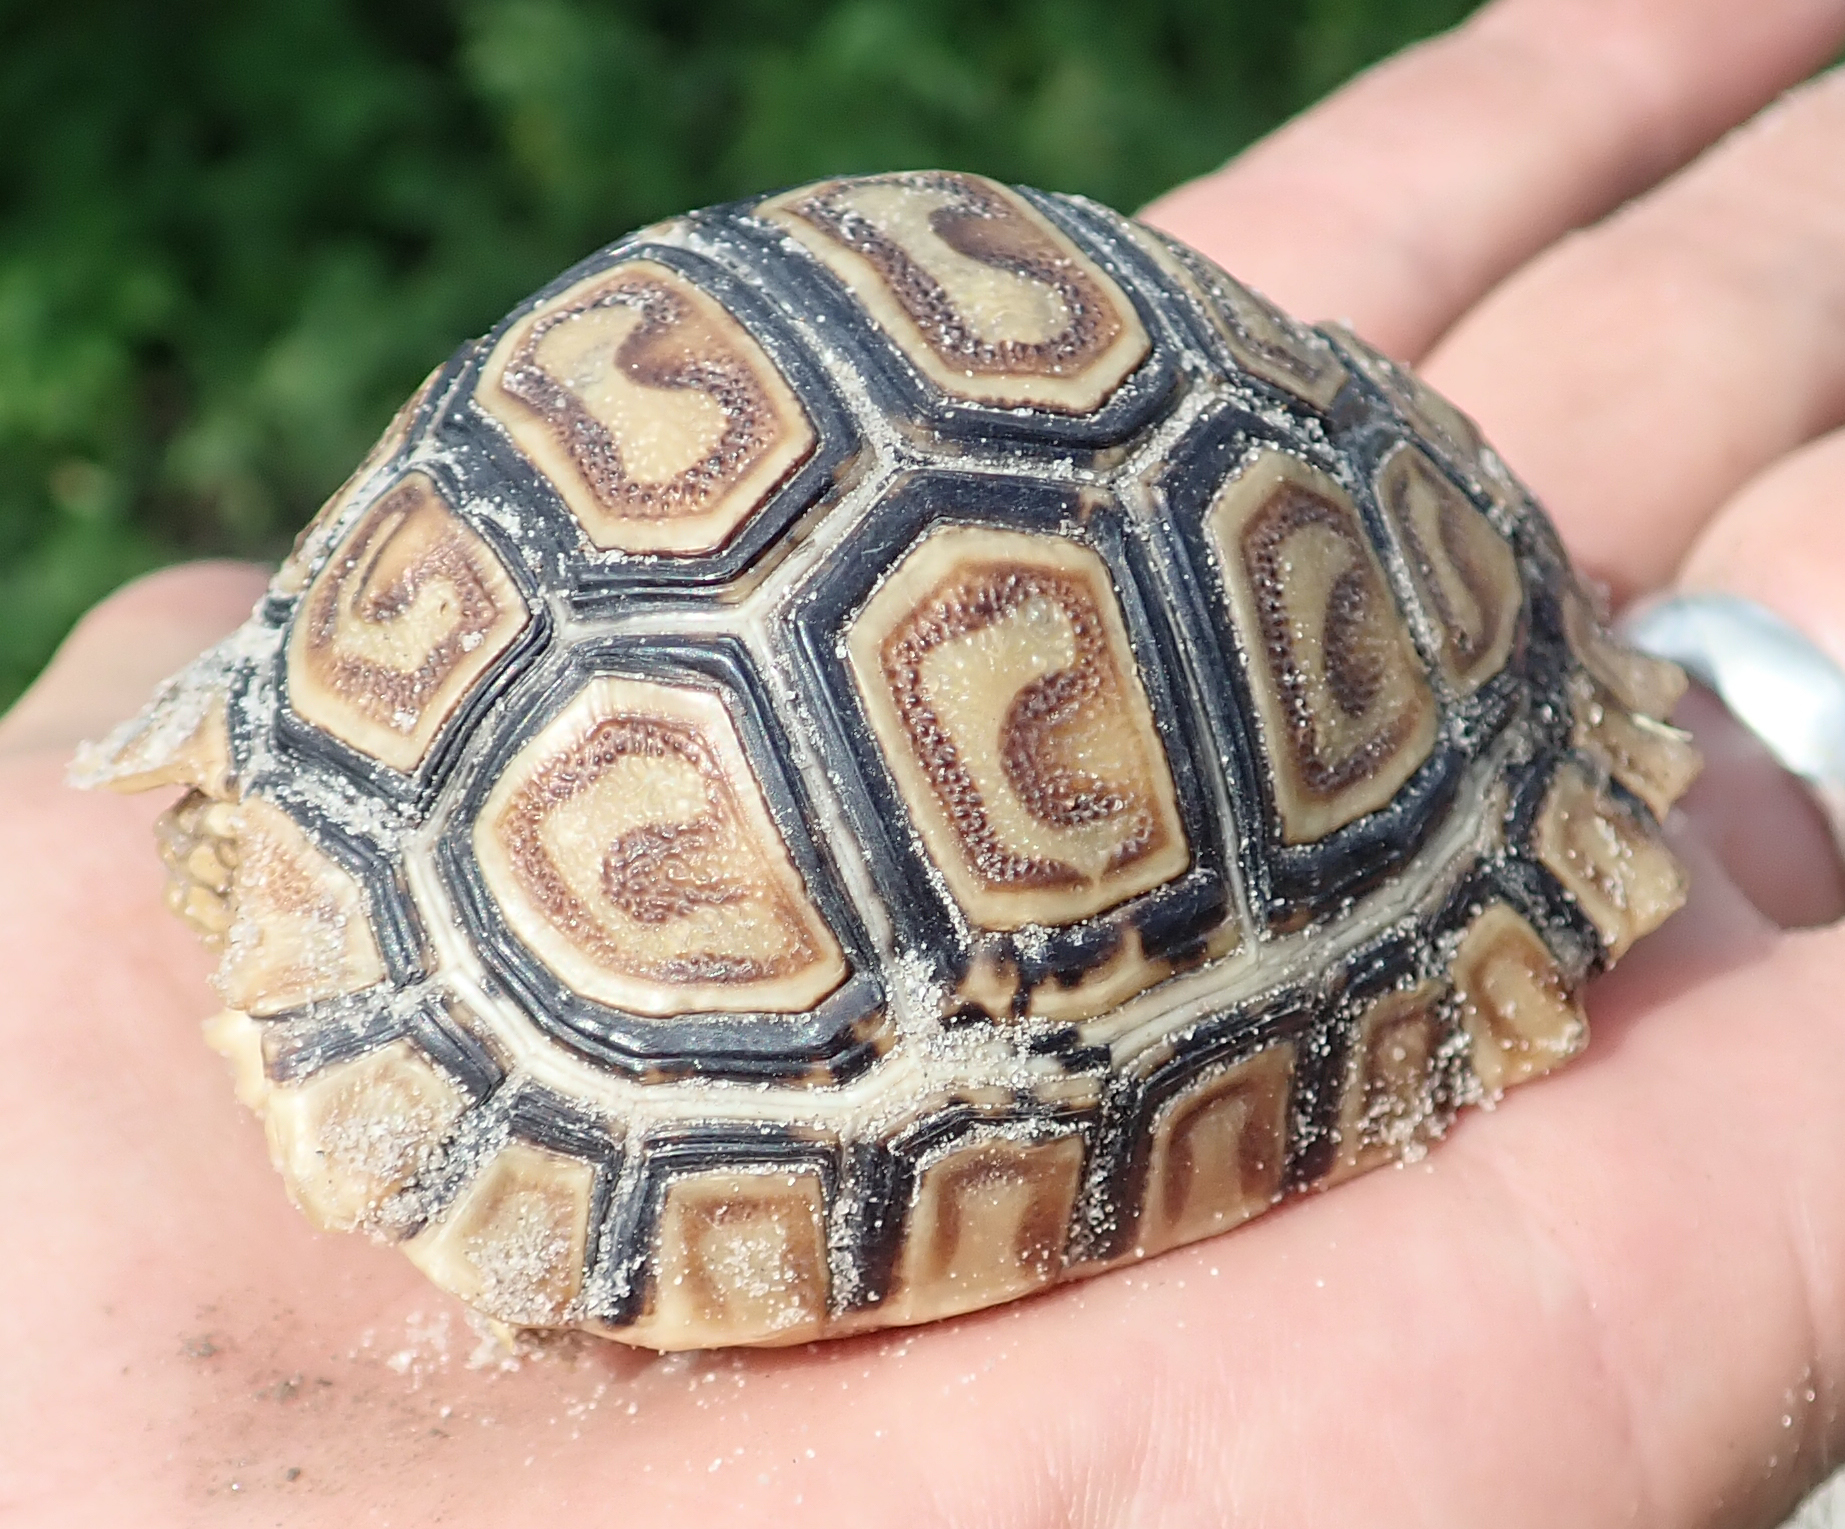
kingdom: Animalia
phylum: Chordata
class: Testudines
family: Testudinidae
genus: Stigmochelys
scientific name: Stigmochelys pardalis
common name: Leopard tortoise
